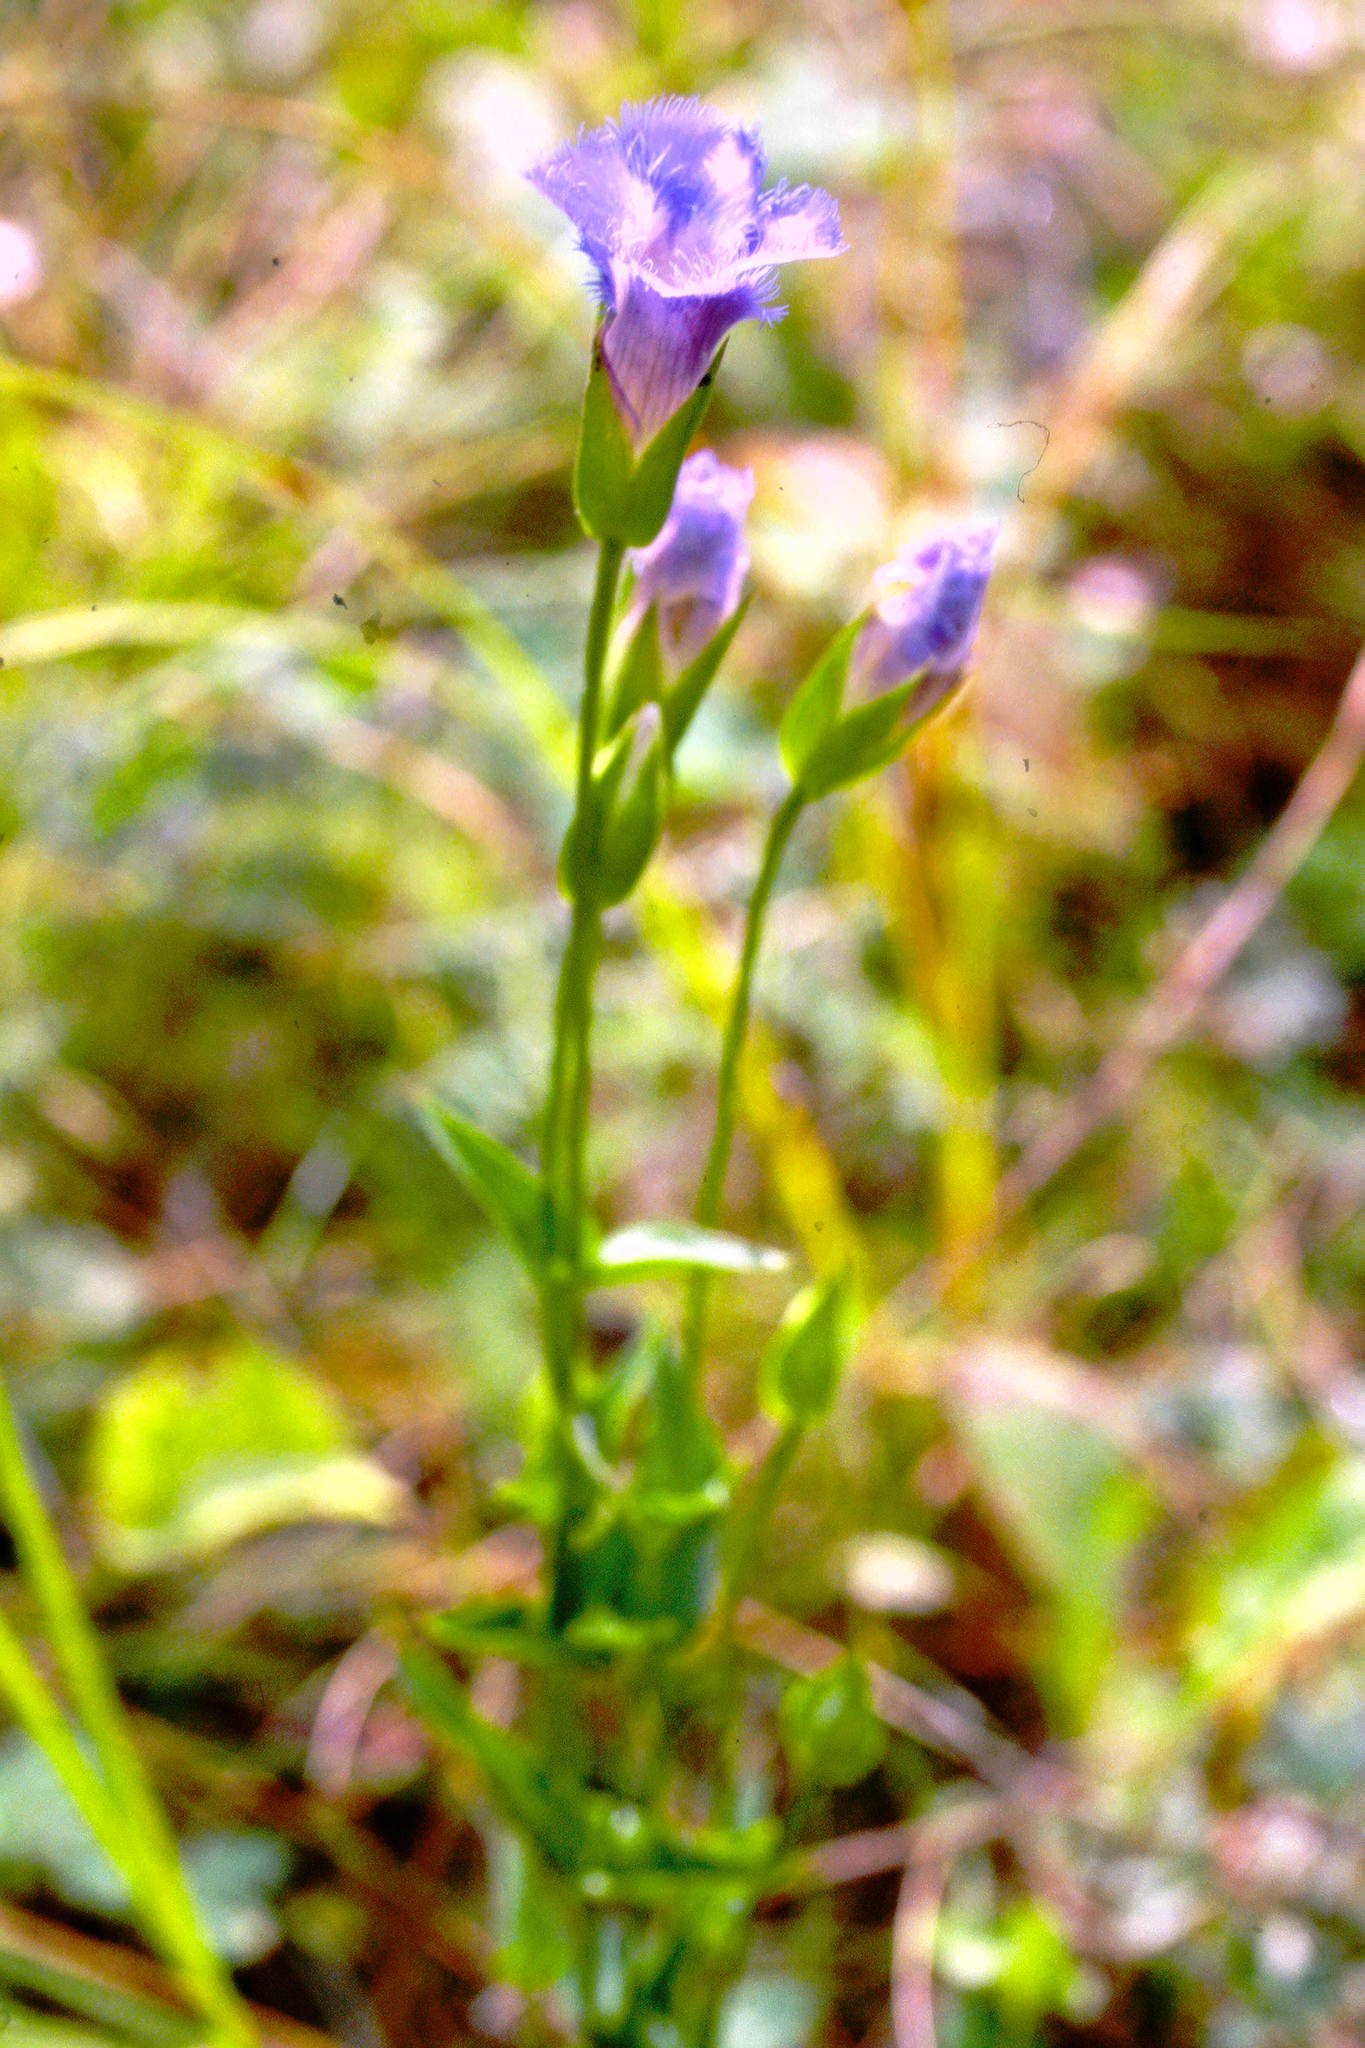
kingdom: Plantae
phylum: Tracheophyta
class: Magnoliopsida
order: Gentianales
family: Gentianaceae
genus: Gentianopsis
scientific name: Gentianopsis crinita
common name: Fringed-gentian
